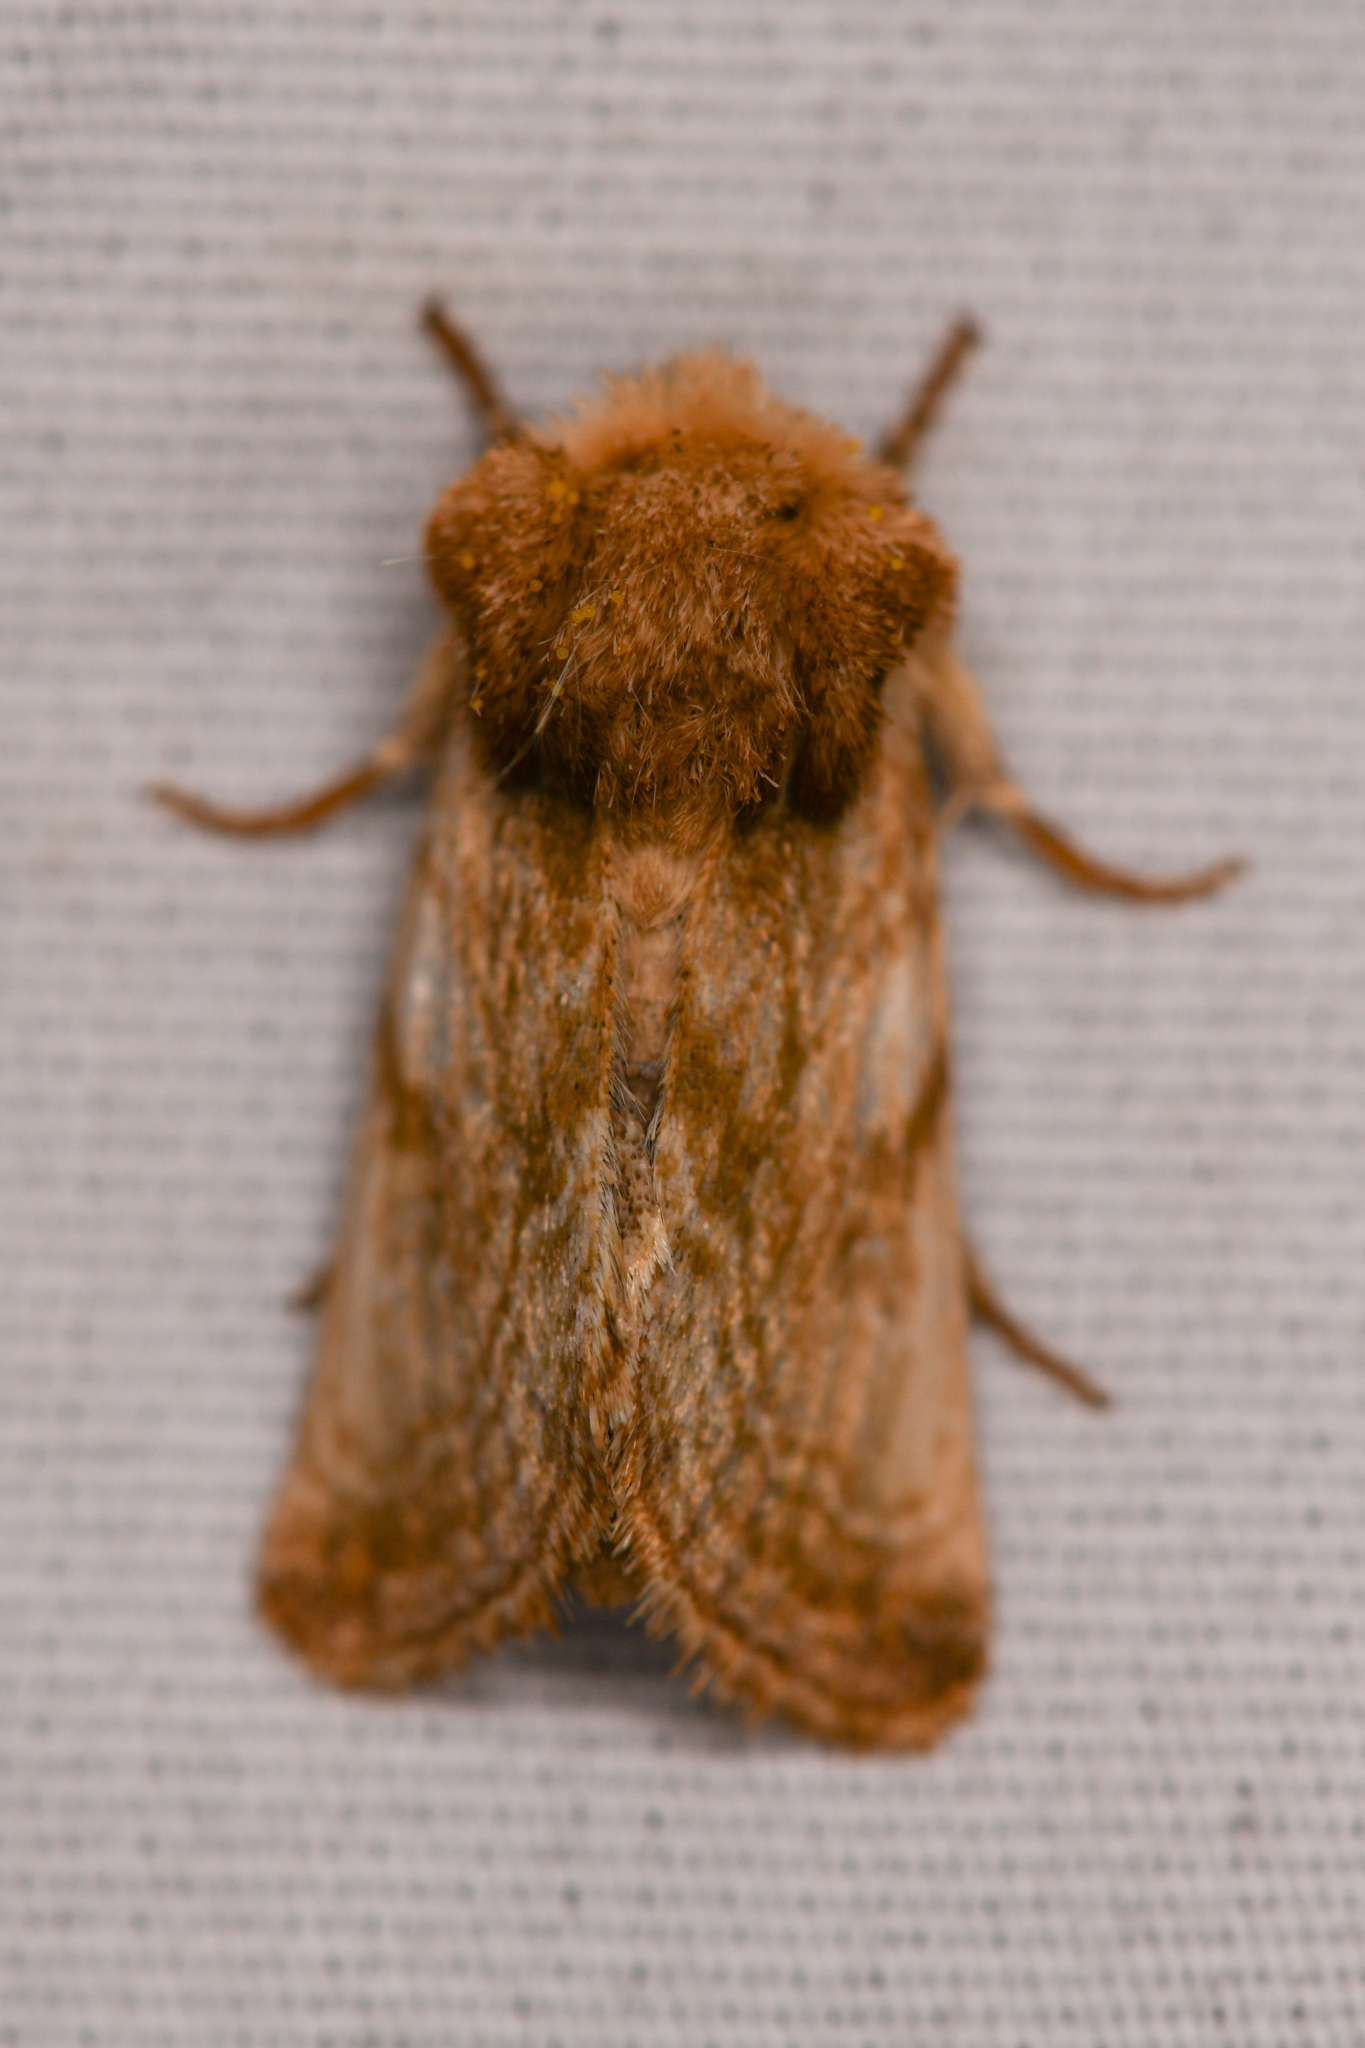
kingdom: Animalia
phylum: Arthropoda
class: Insecta
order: Lepidoptera
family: Noctuidae
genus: Nocloa
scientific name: Nocloa rivulosa
